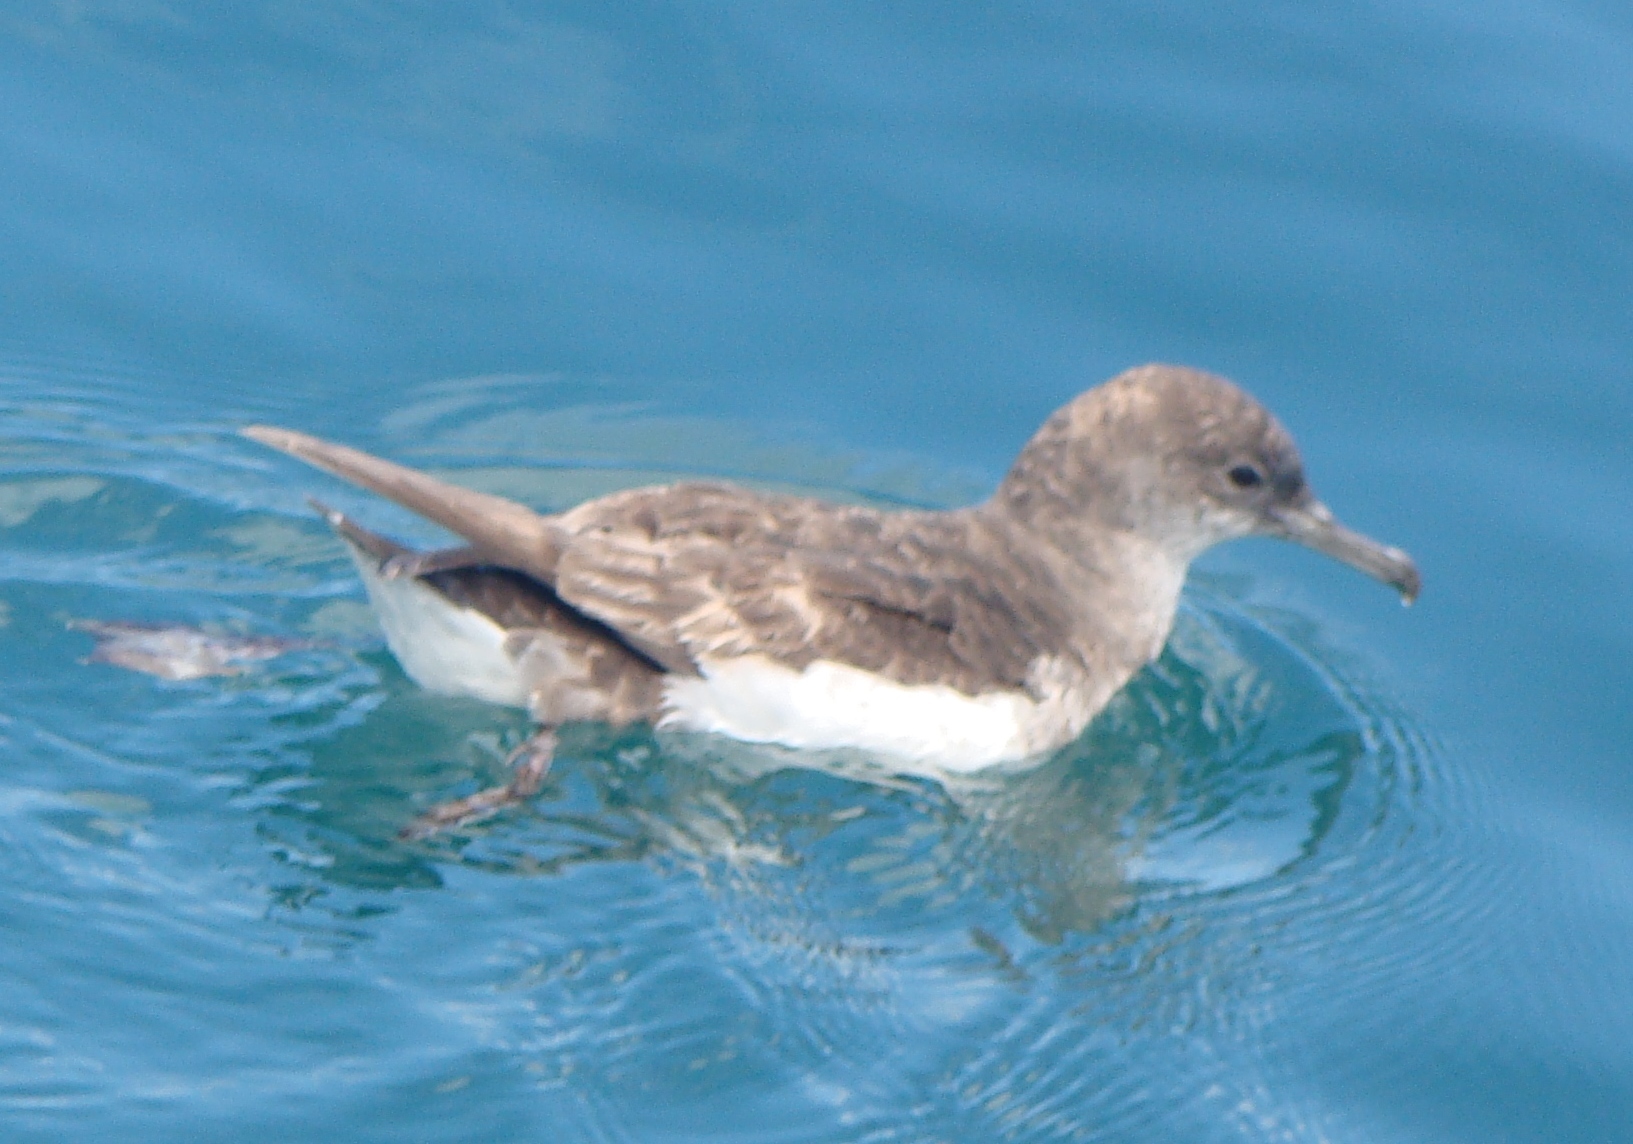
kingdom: Animalia
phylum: Chordata
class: Aves
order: Procellariiformes
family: Procellariidae
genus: Puffinus
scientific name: Puffinus gavia
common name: Fluttering shearwater
